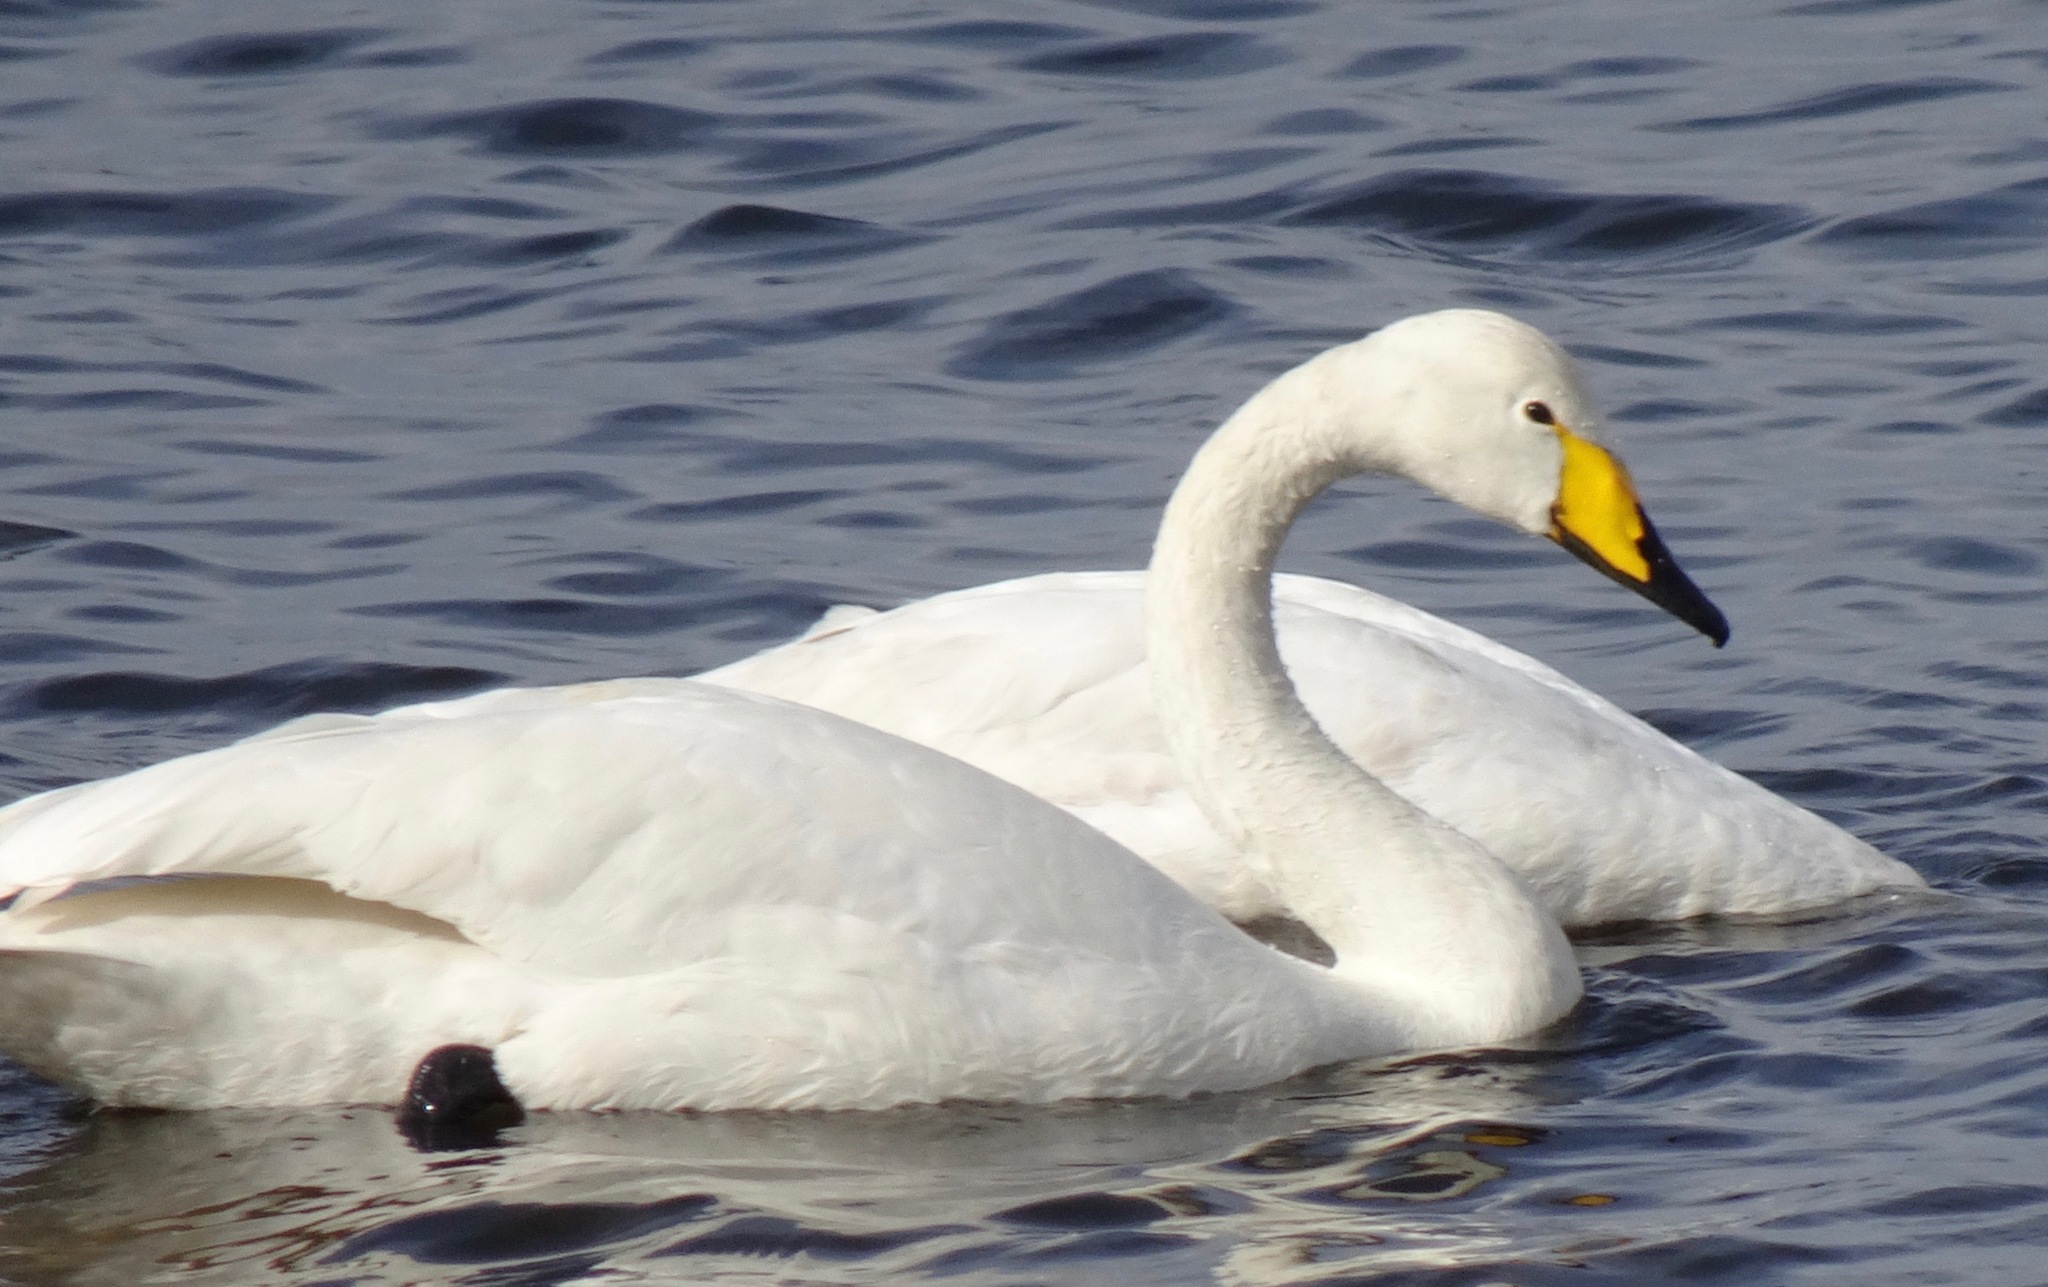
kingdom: Animalia
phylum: Chordata
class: Aves
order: Anseriformes
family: Anatidae
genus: Cygnus
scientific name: Cygnus cygnus
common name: Whooper swan
